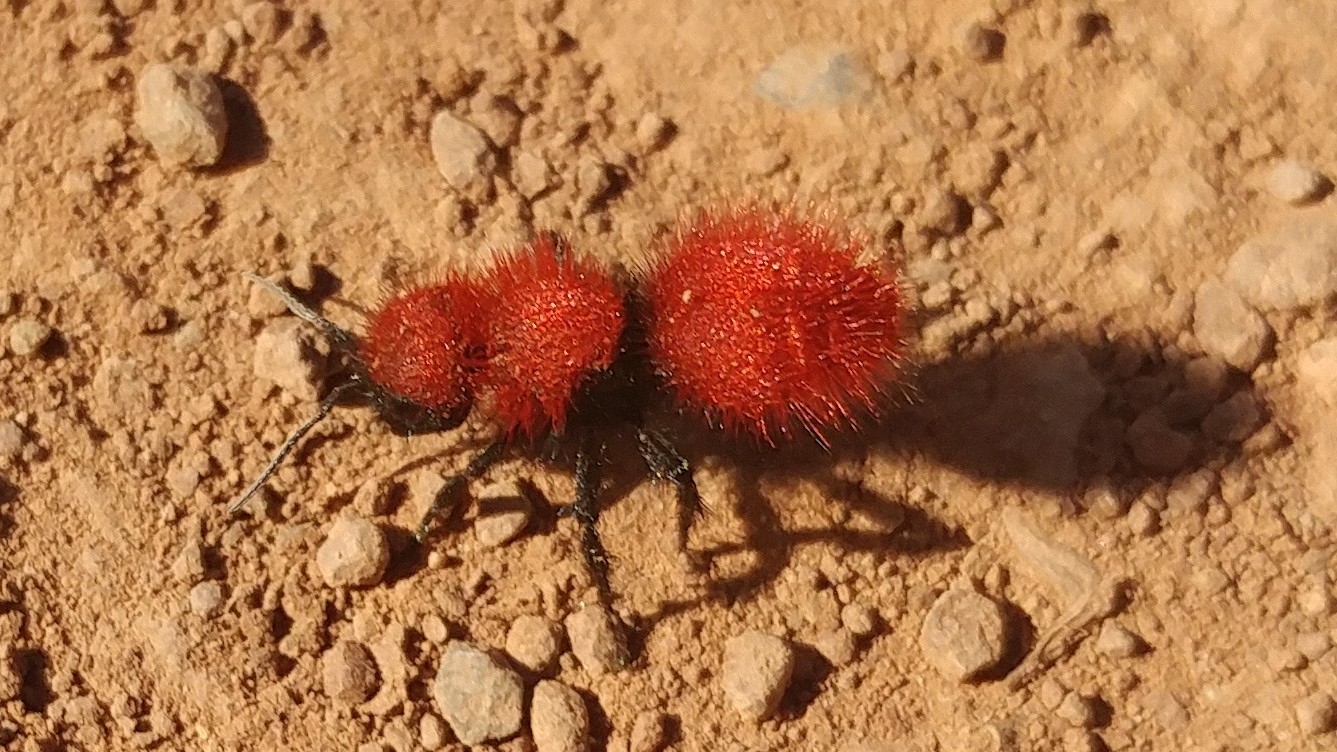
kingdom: Animalia
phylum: Arthropoda
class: Insecta
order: Hymenoptera
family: Mutillidae
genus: Dasymutilla
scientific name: Dasymutilla
